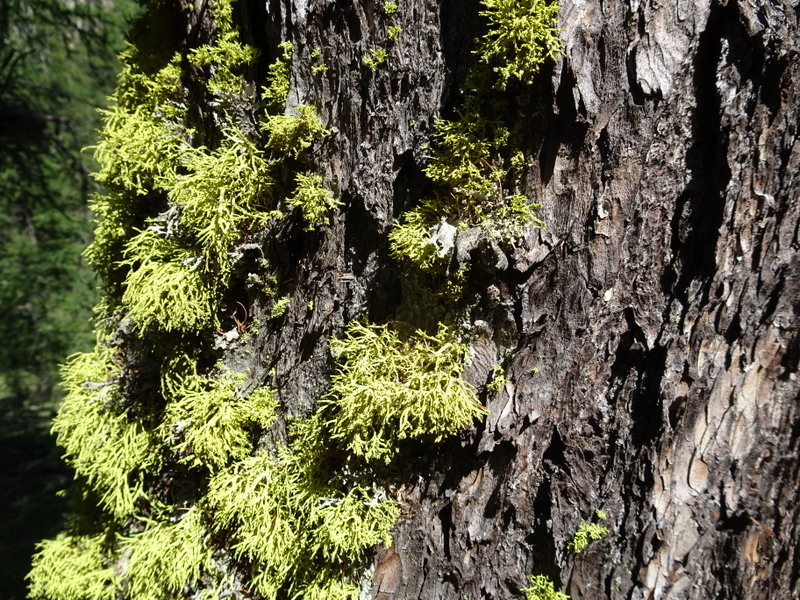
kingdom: Fungi
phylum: Ascomycota
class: Lecanoromycetes
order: Lecanorales
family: Parmeliaceae
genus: Letharia
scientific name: Letharia vulpina
